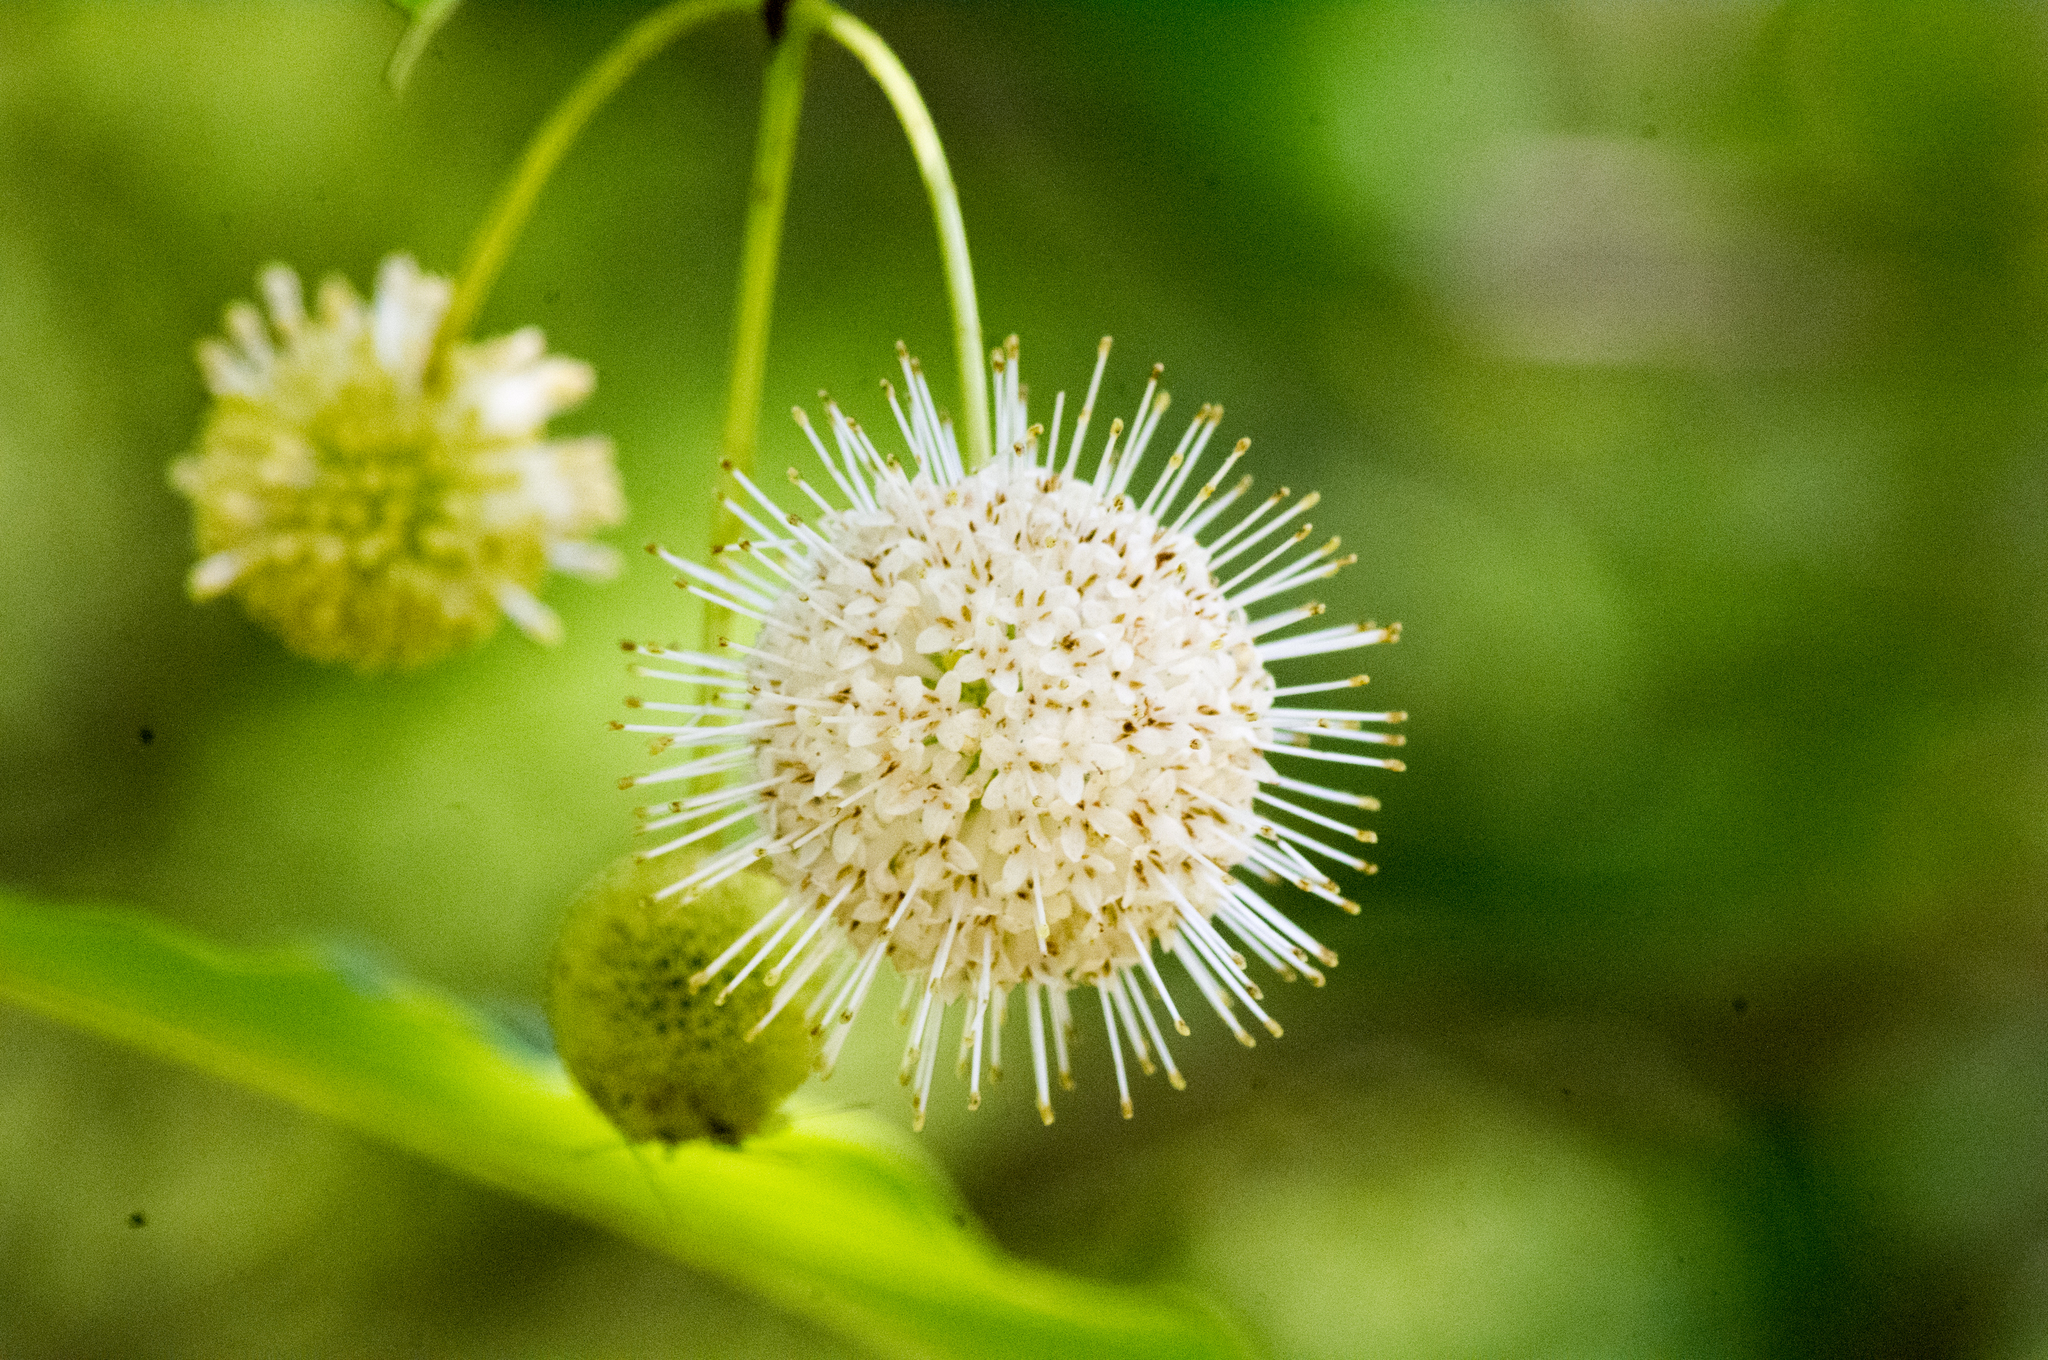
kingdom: Plantae
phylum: Tracheophyta
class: Magnoliopsida
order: Gentianales
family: Rubiaceae
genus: Cephalanthus
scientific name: Cephalanthus occidentalis
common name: Button-willow
